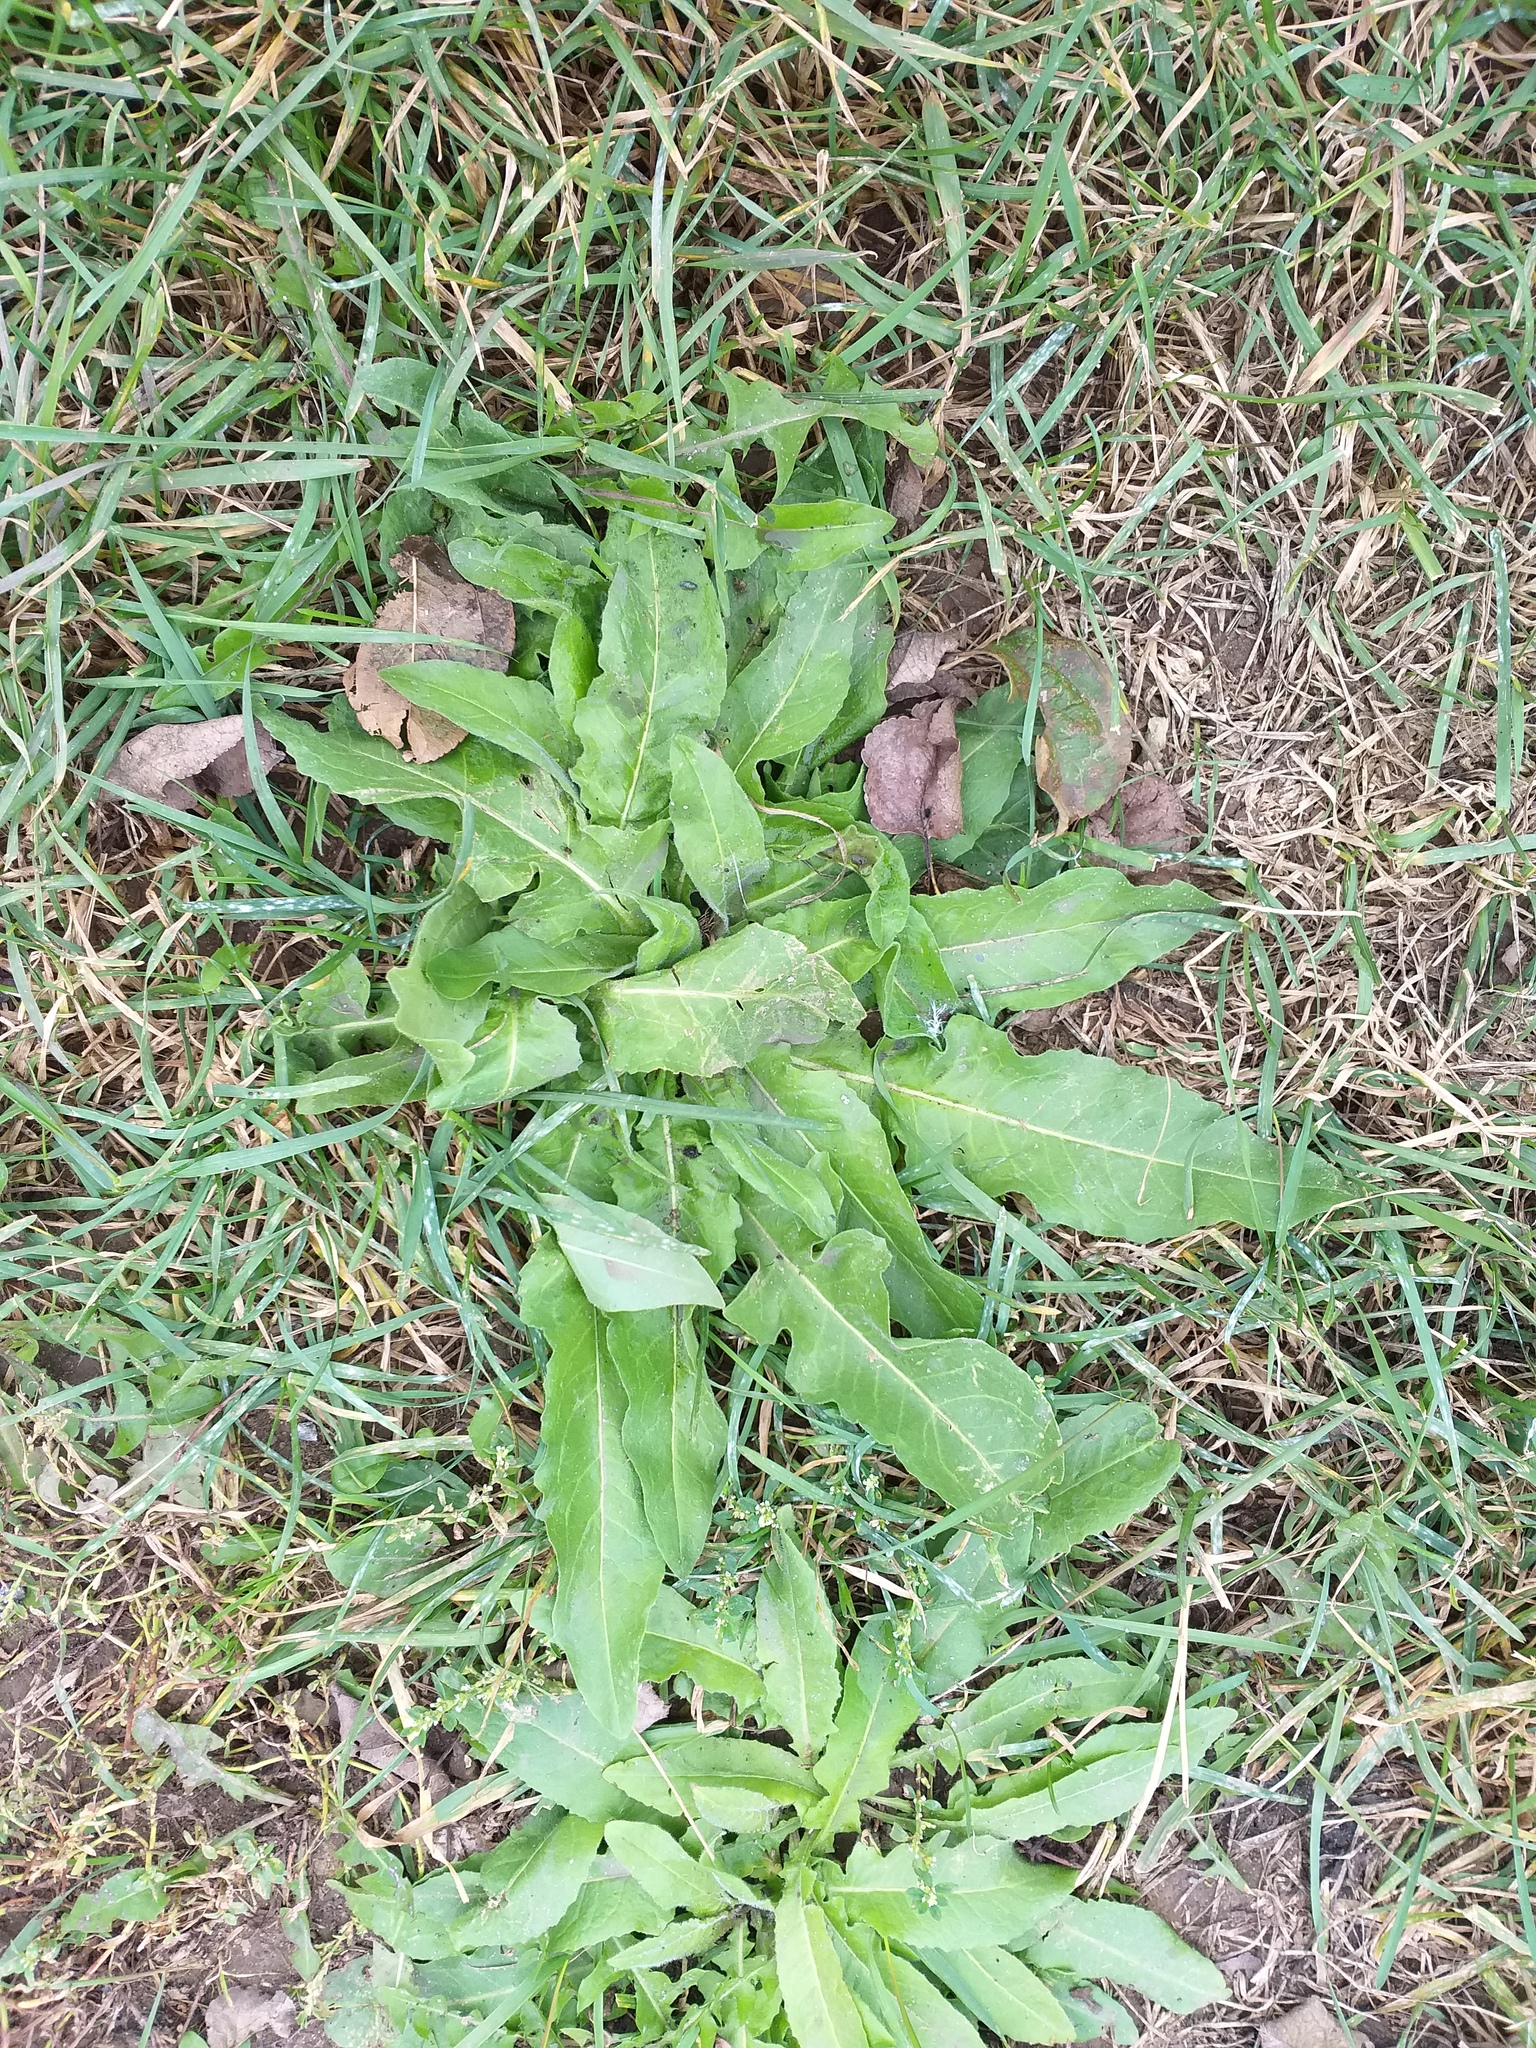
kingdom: Plantae
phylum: Tracheophyta
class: Magnoliopsida
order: Brassicales
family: Brassicaceae
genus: Bunias
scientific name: Bunias orientalis
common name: Warty-cabbage
